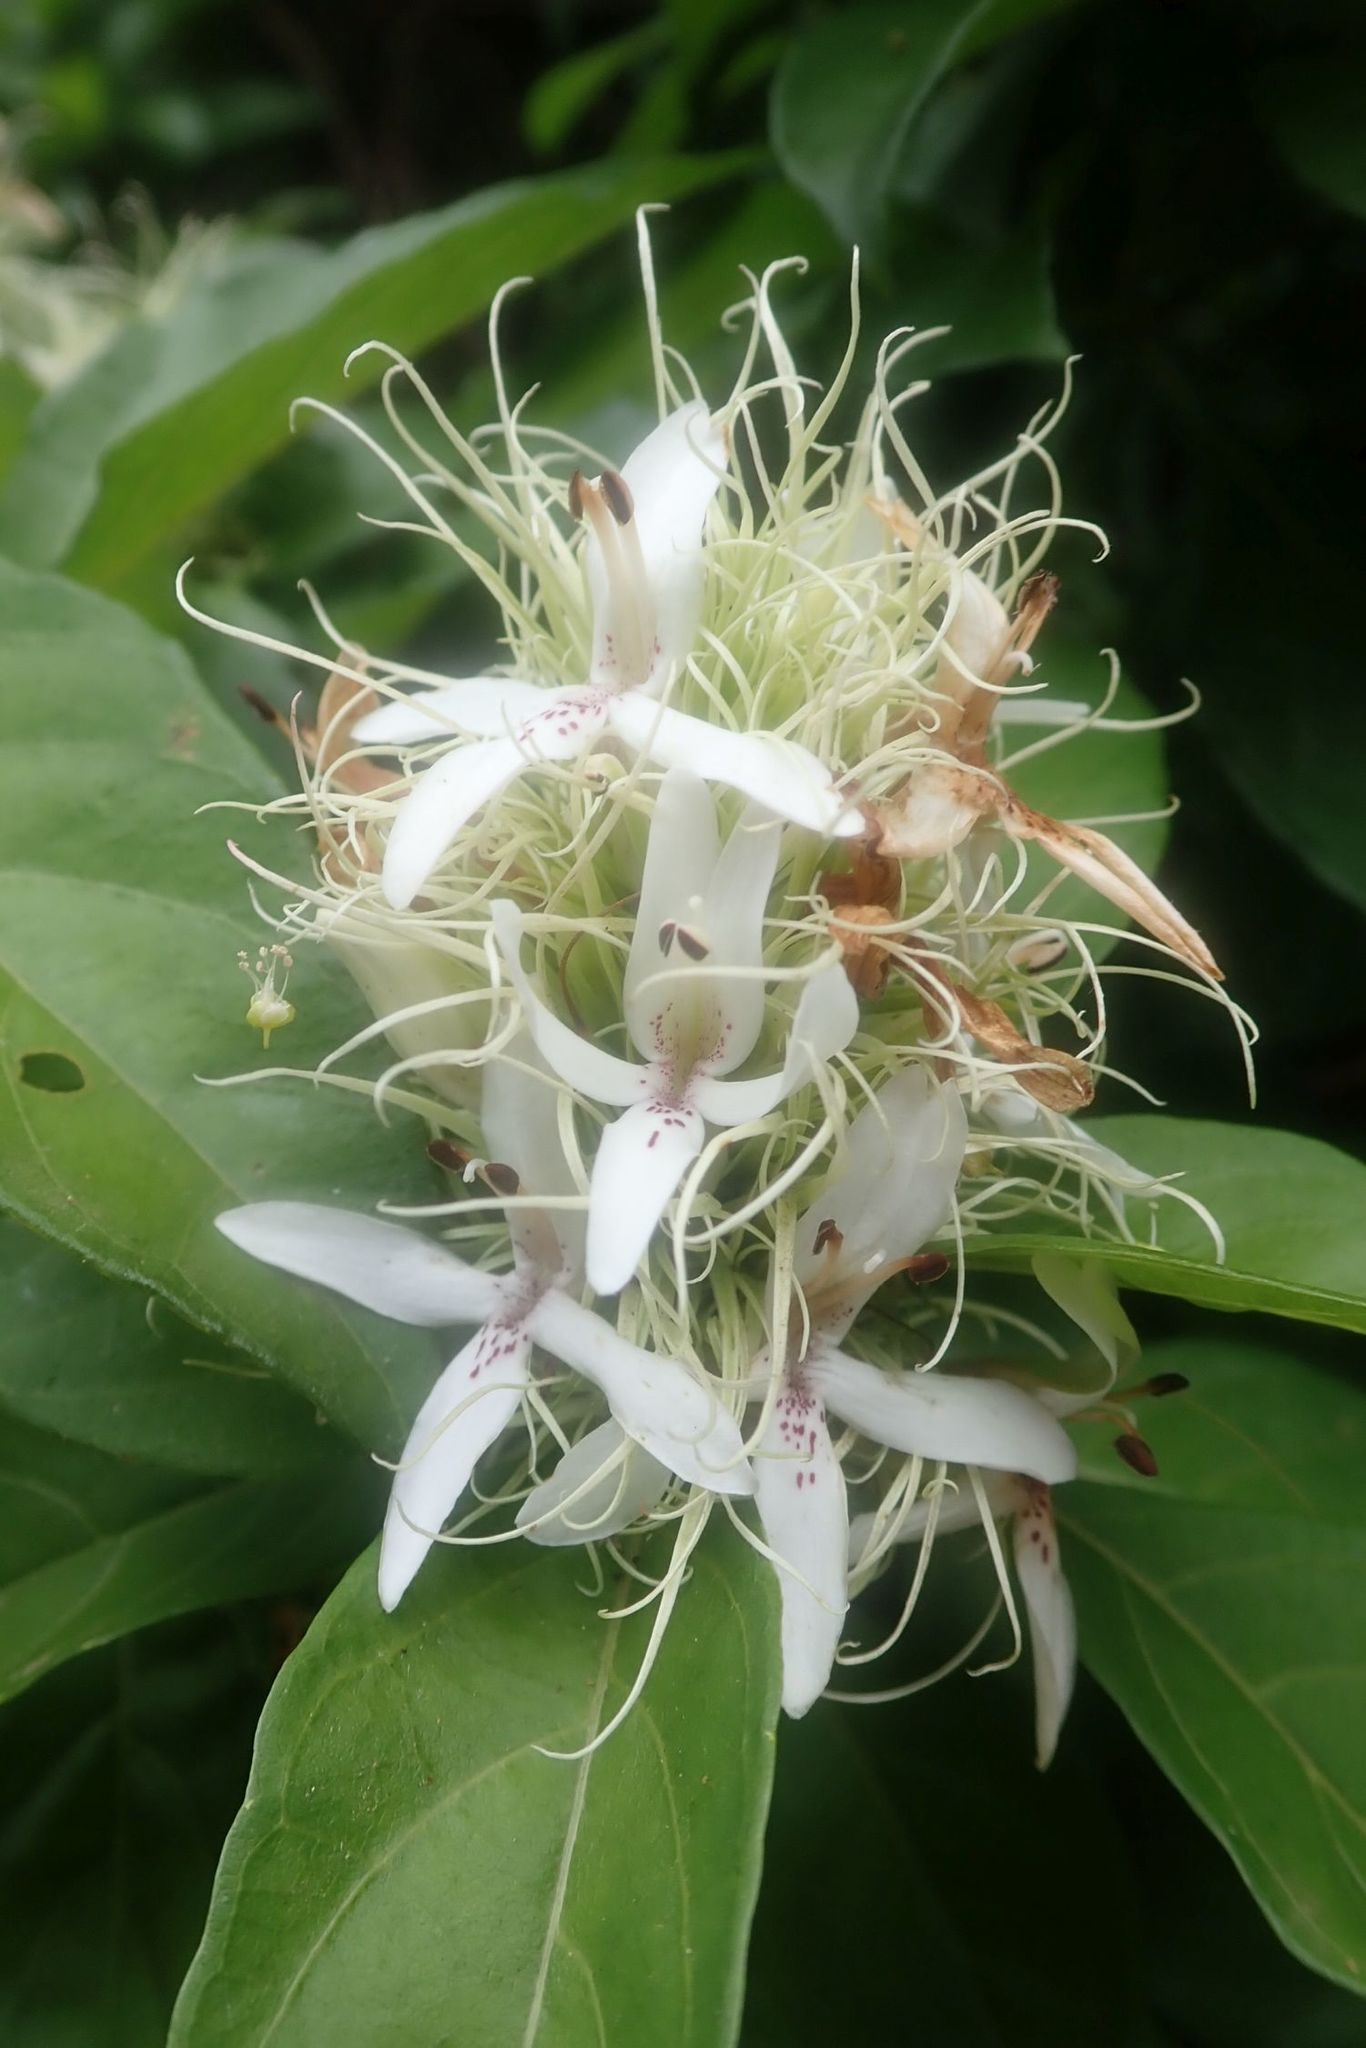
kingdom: Plantae
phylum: Tracheophyta
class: Magnoliopsida
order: Lamiales
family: Acanthaceae
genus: Ruttya
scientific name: Ruttya ovata
